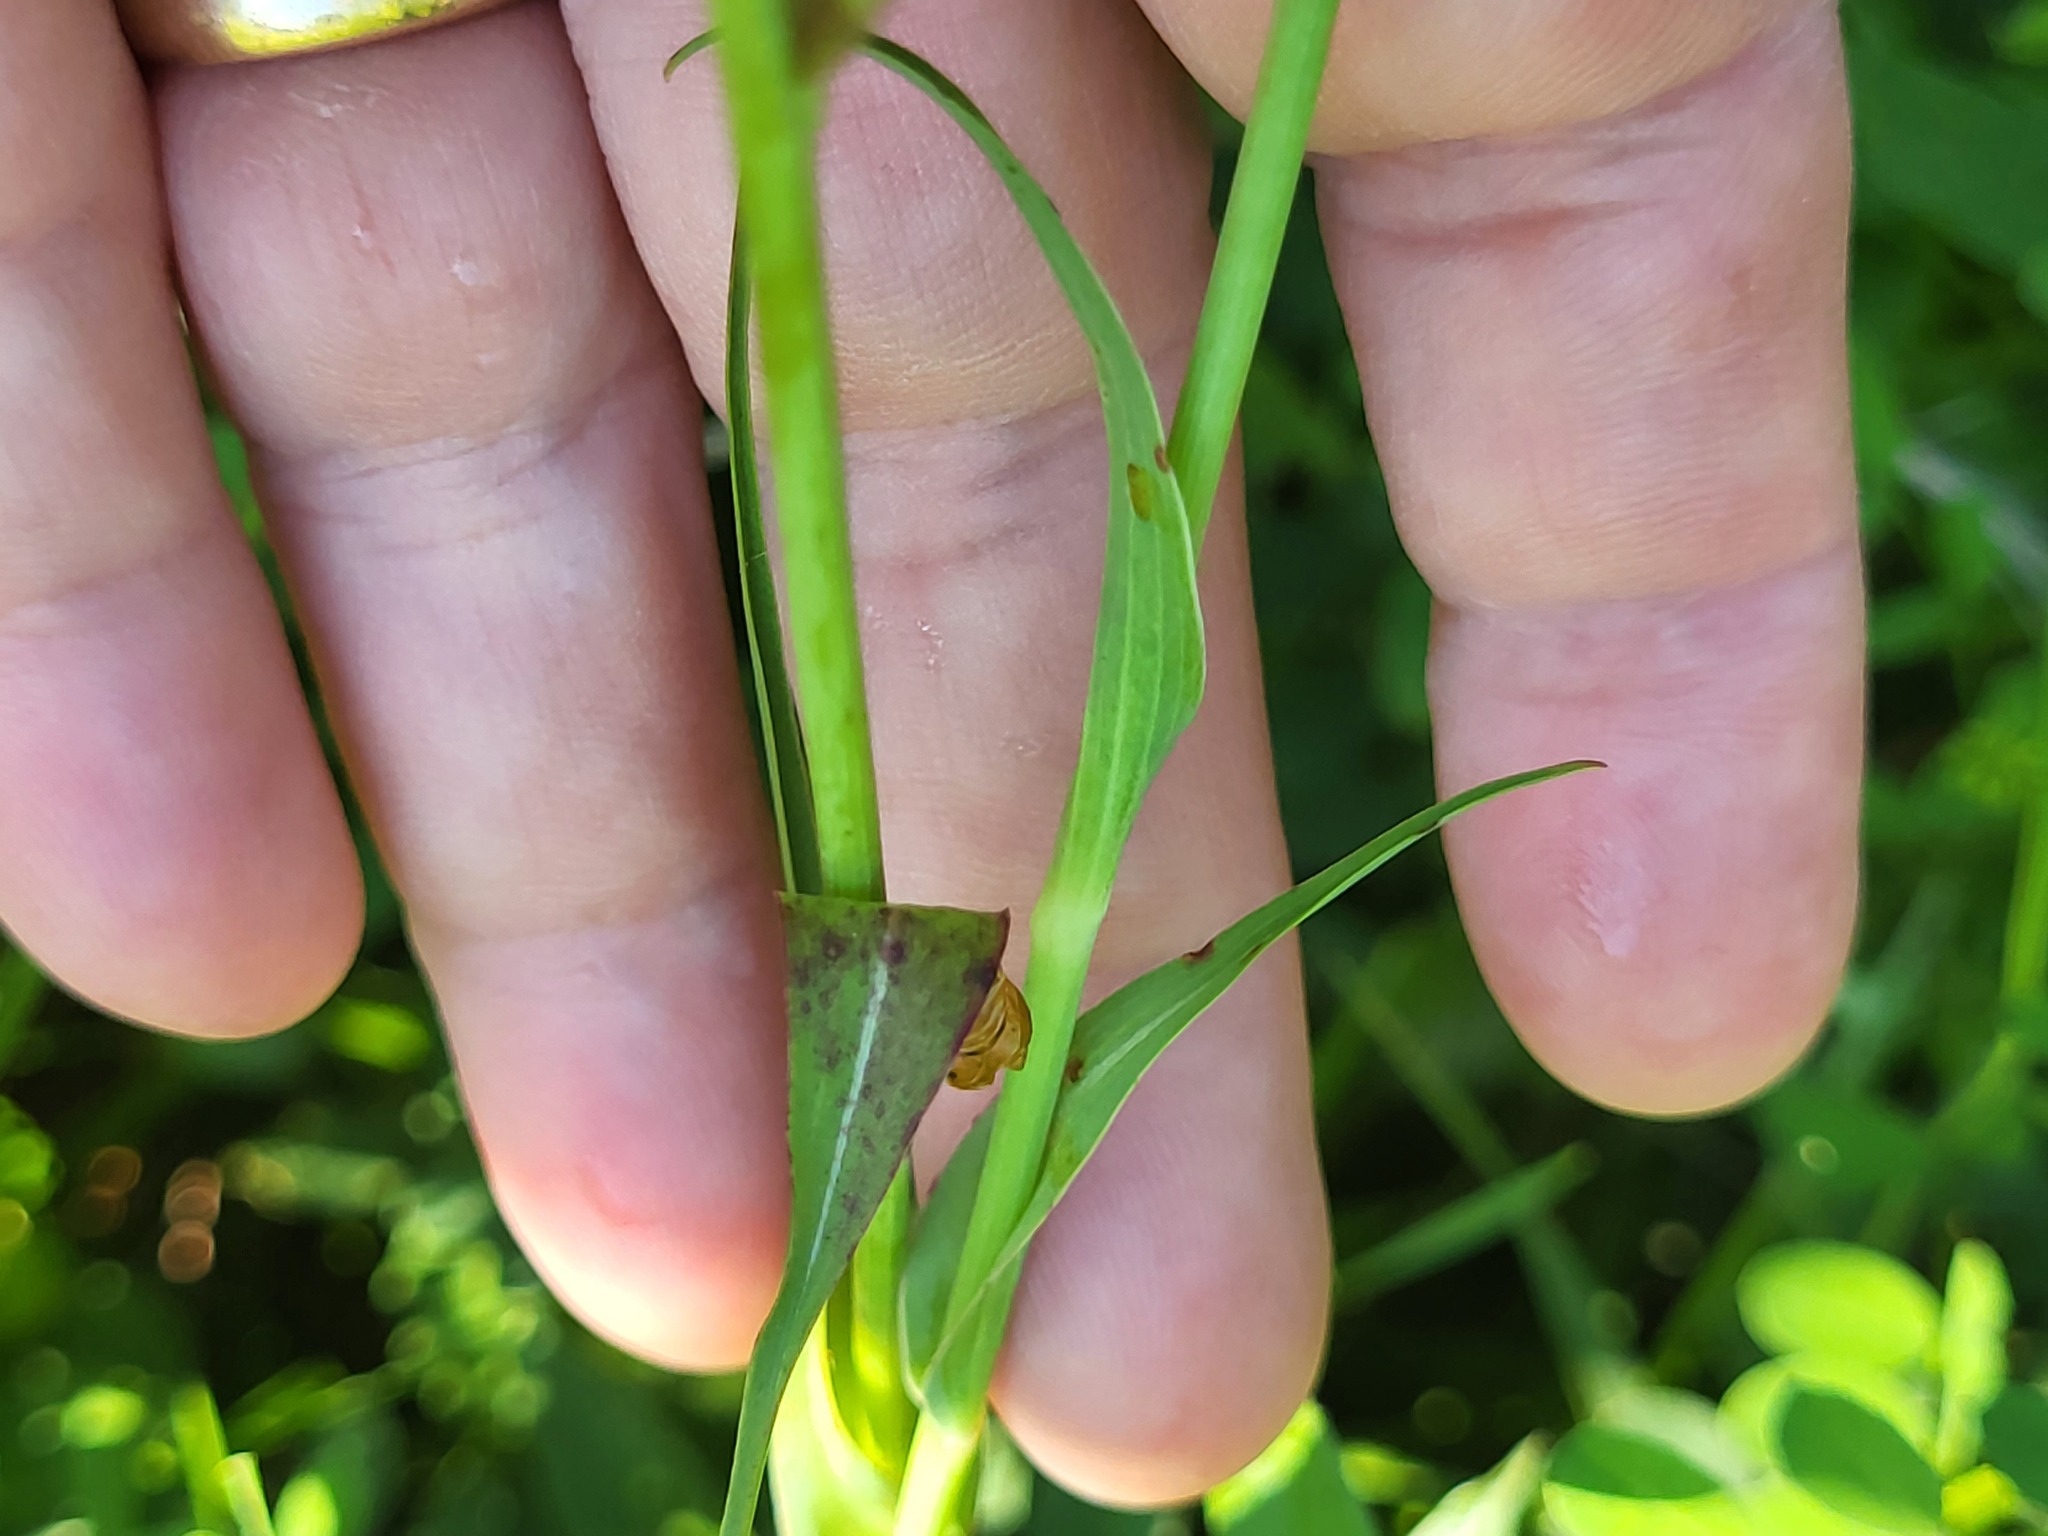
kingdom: Plantae
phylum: Tracheophyta
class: Magnoliopsida
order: Asterales
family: Asteraceae
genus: Tragopogon
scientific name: Tragopogon pratensis
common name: Goat's-beard
